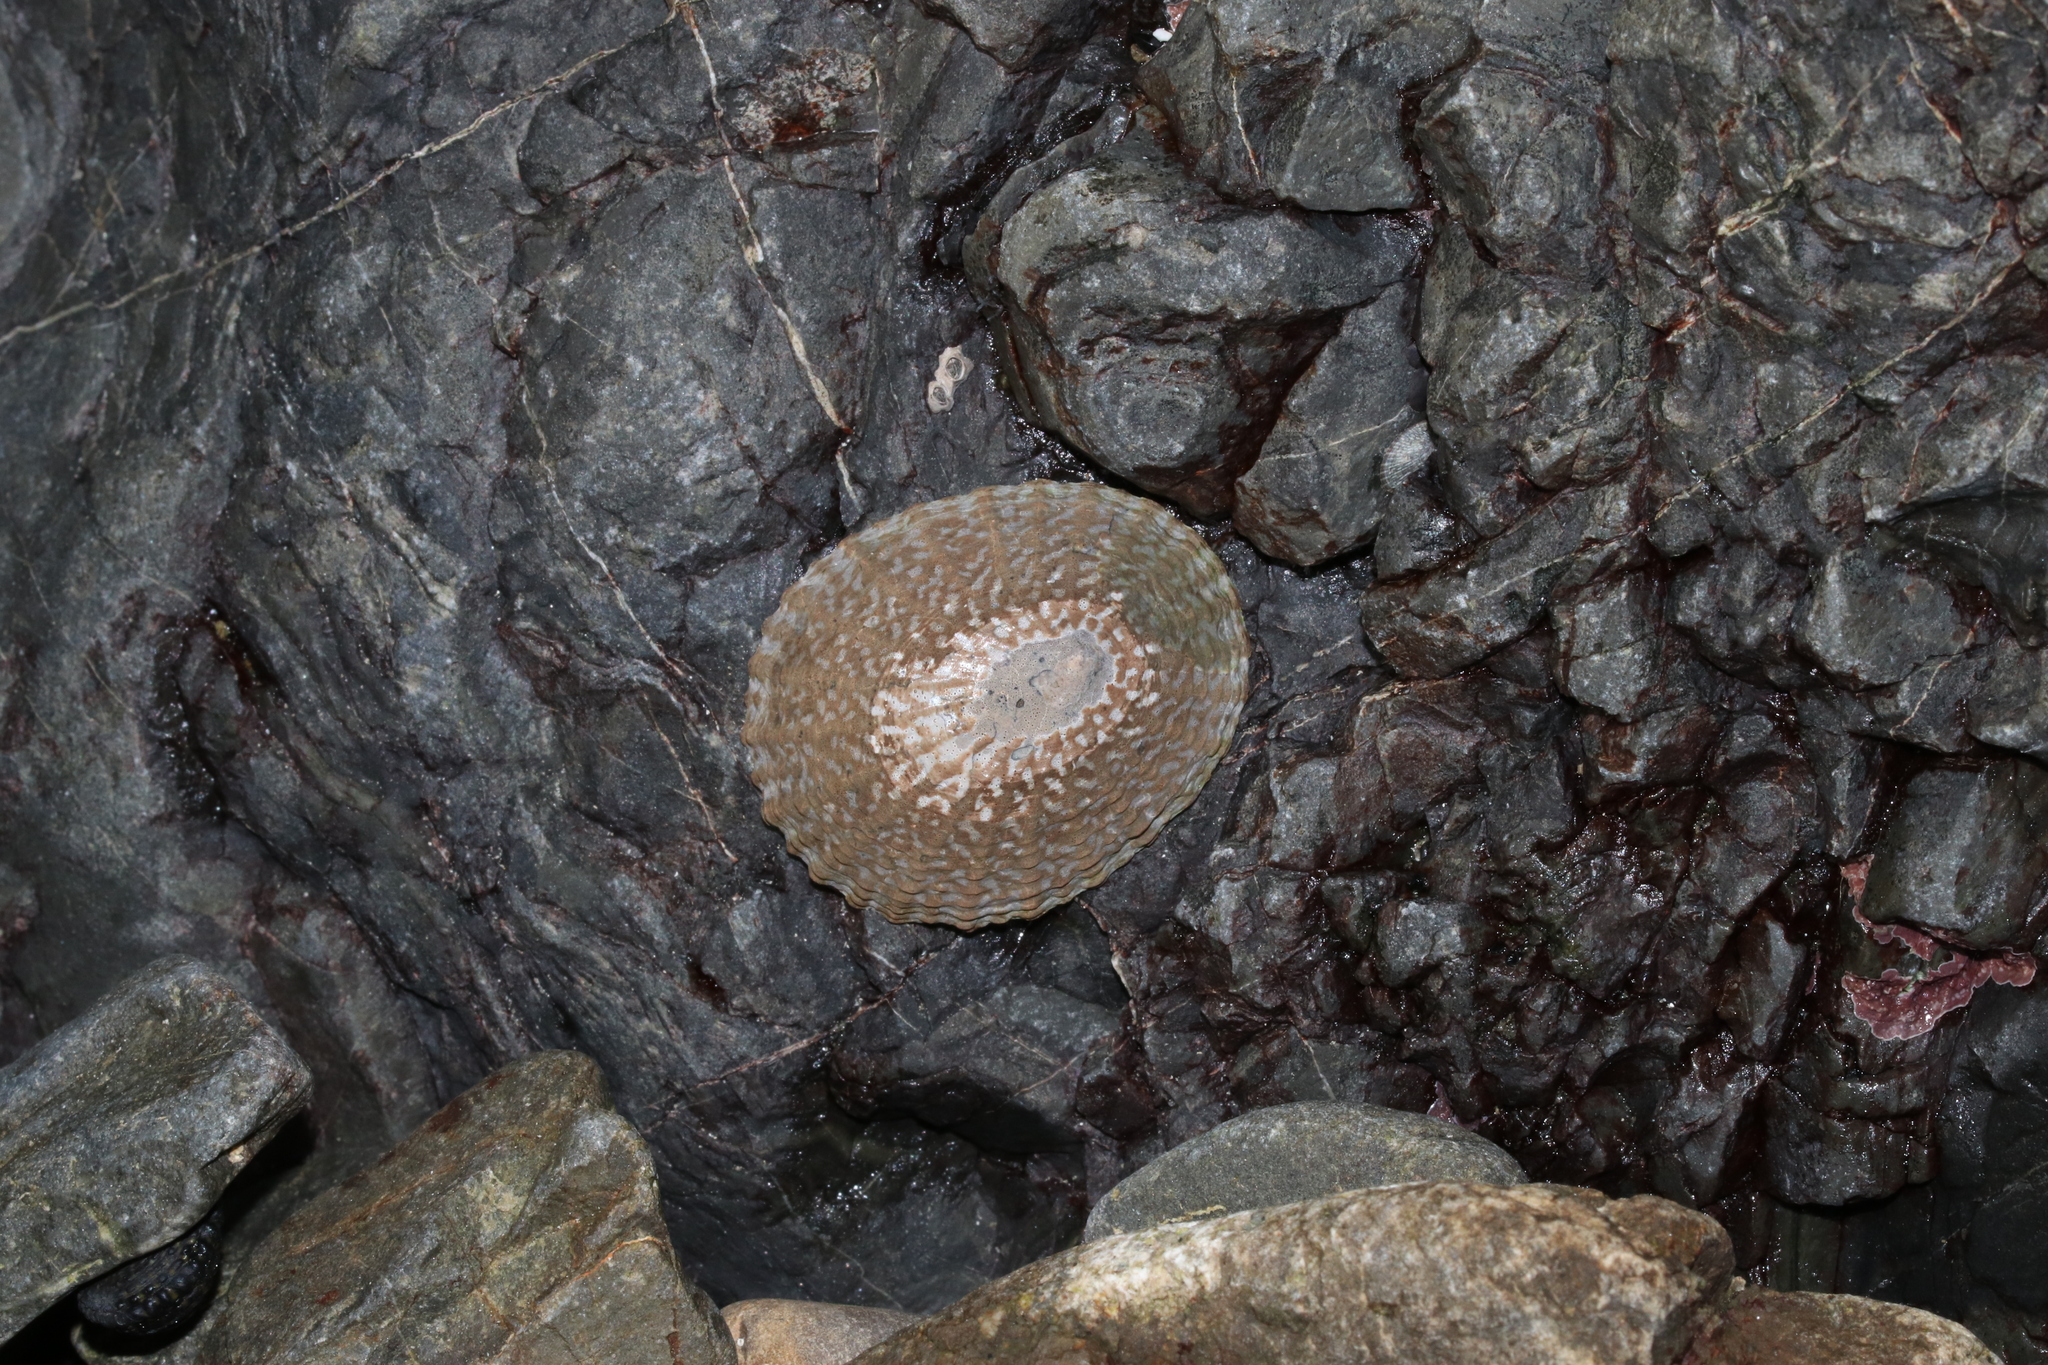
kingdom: Animalia
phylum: Mollusca
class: Gastropoda
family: Nacellidae
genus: Cellana
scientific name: Cellana denticulata
